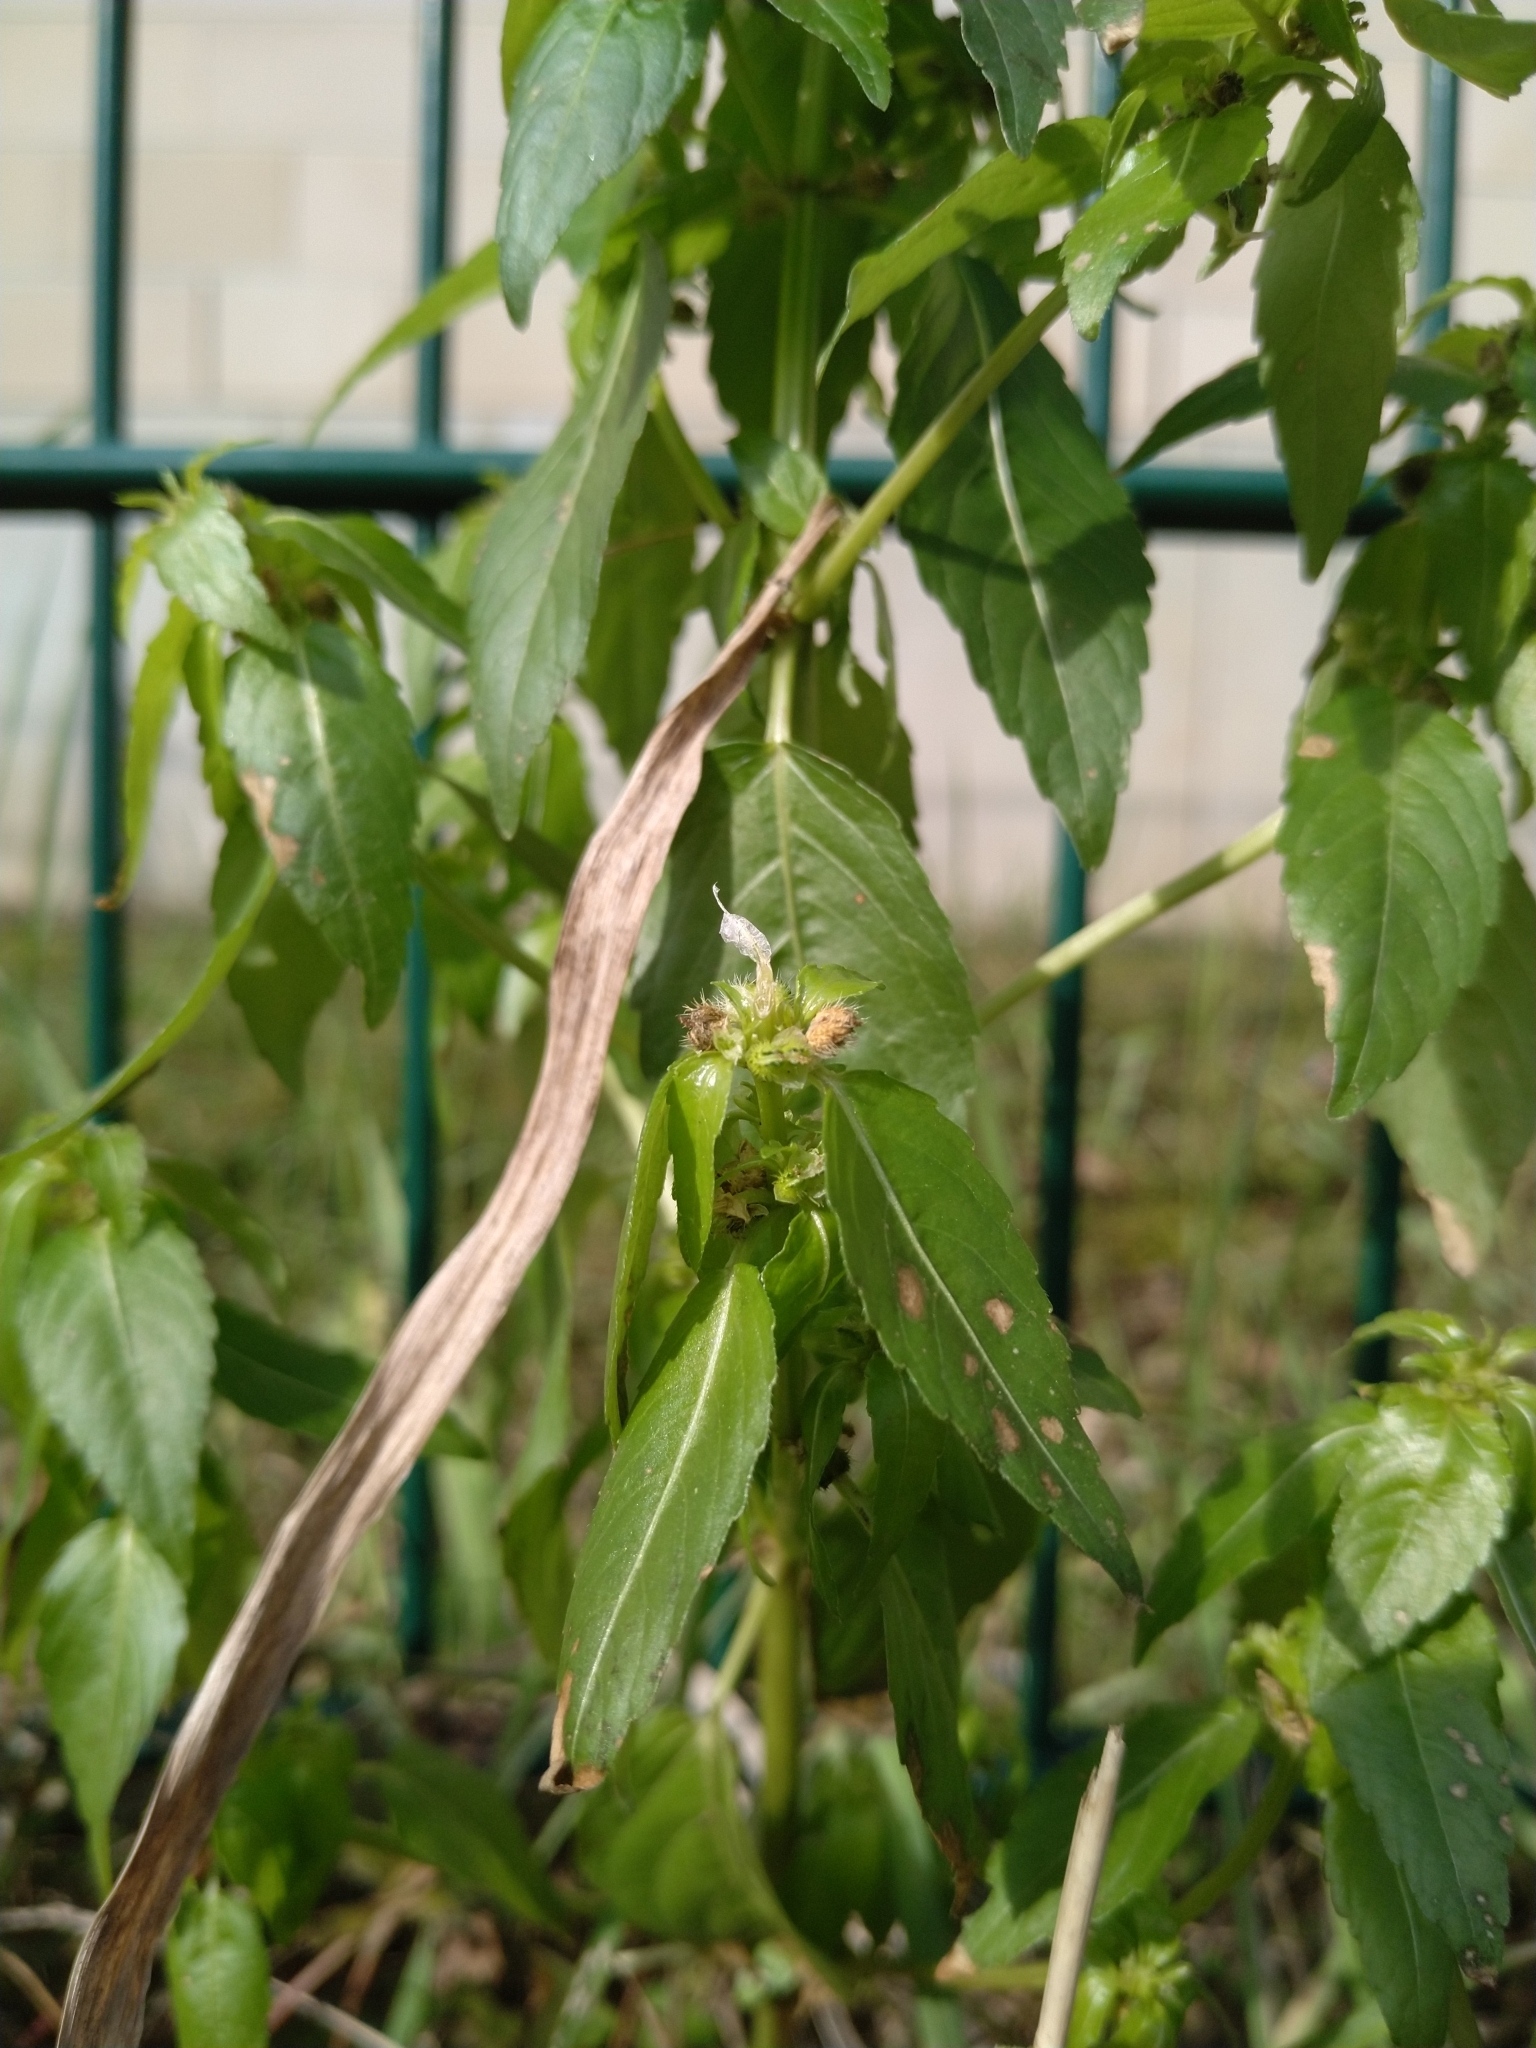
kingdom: Plantae
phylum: Tracheophyta
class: Magnoliopsida
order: Malpighiales
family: Euphorbiaceae
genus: Mercurialis
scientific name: Mercurialis annua
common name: Annual mercury
